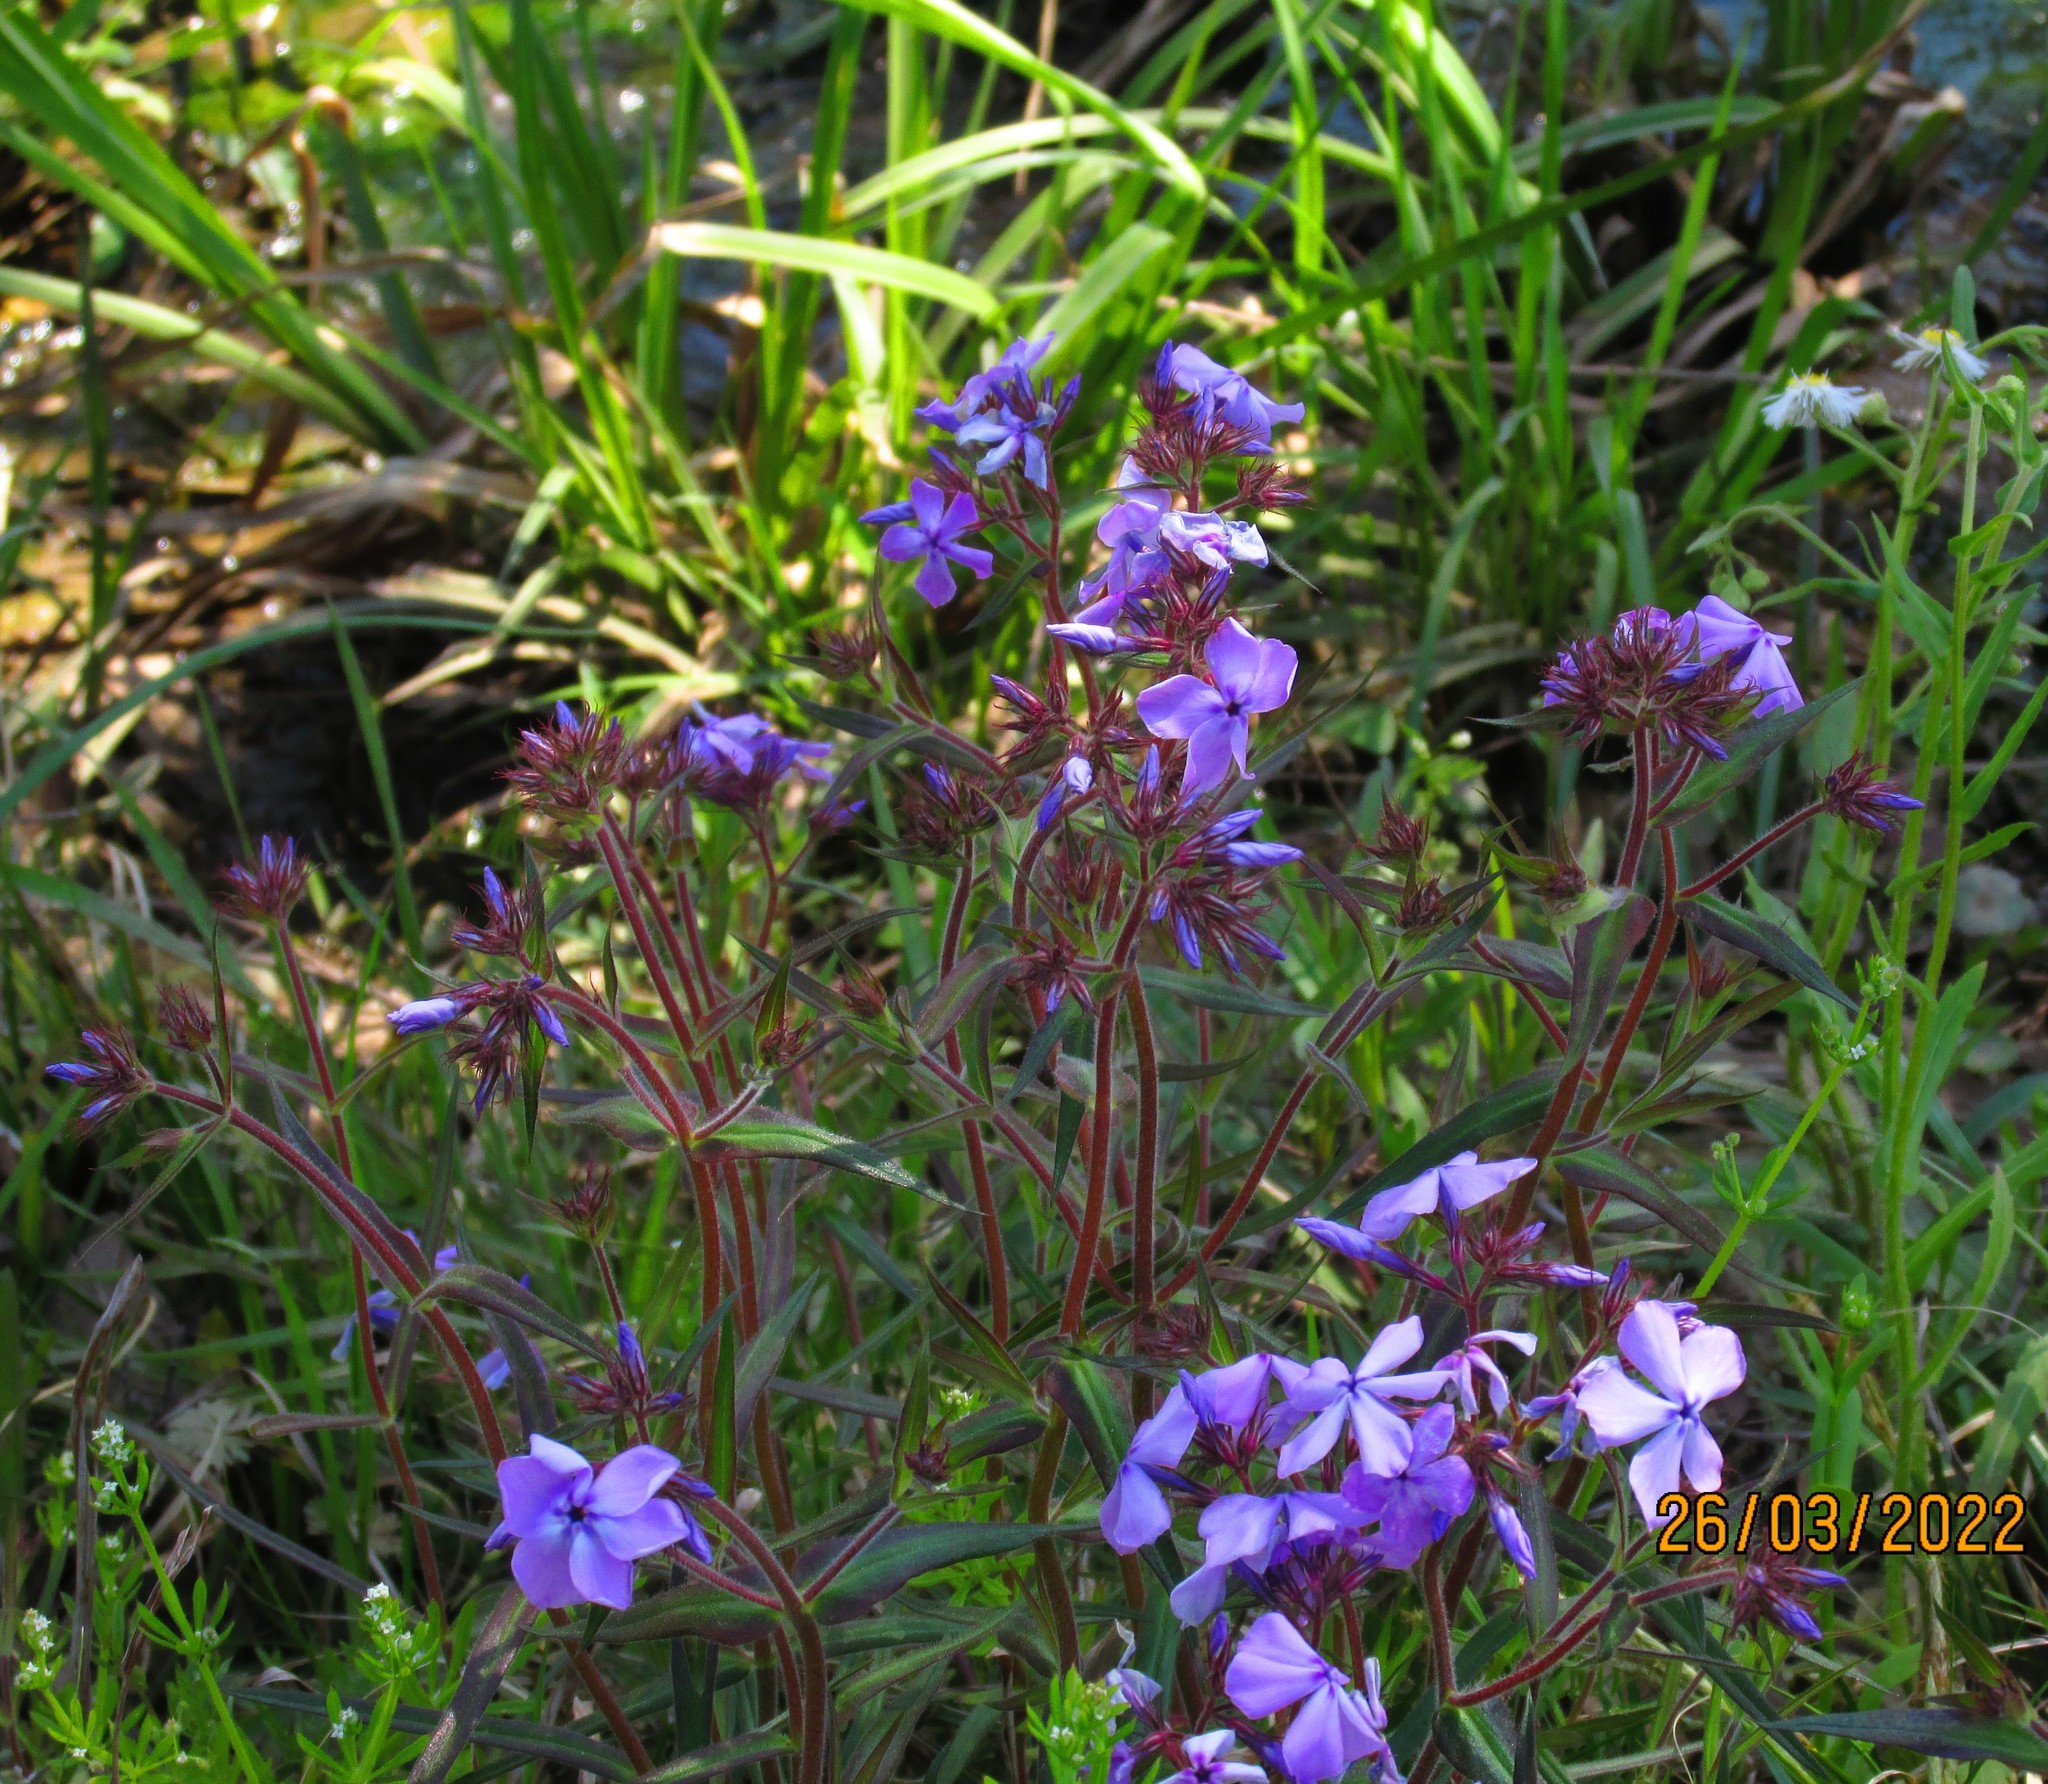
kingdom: Plantae
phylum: Tracheophyta
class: Magnoliopsida
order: Ericales
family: Polemoniaceae
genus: Phlox
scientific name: Phlox pilosa
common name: Prairie phlox
